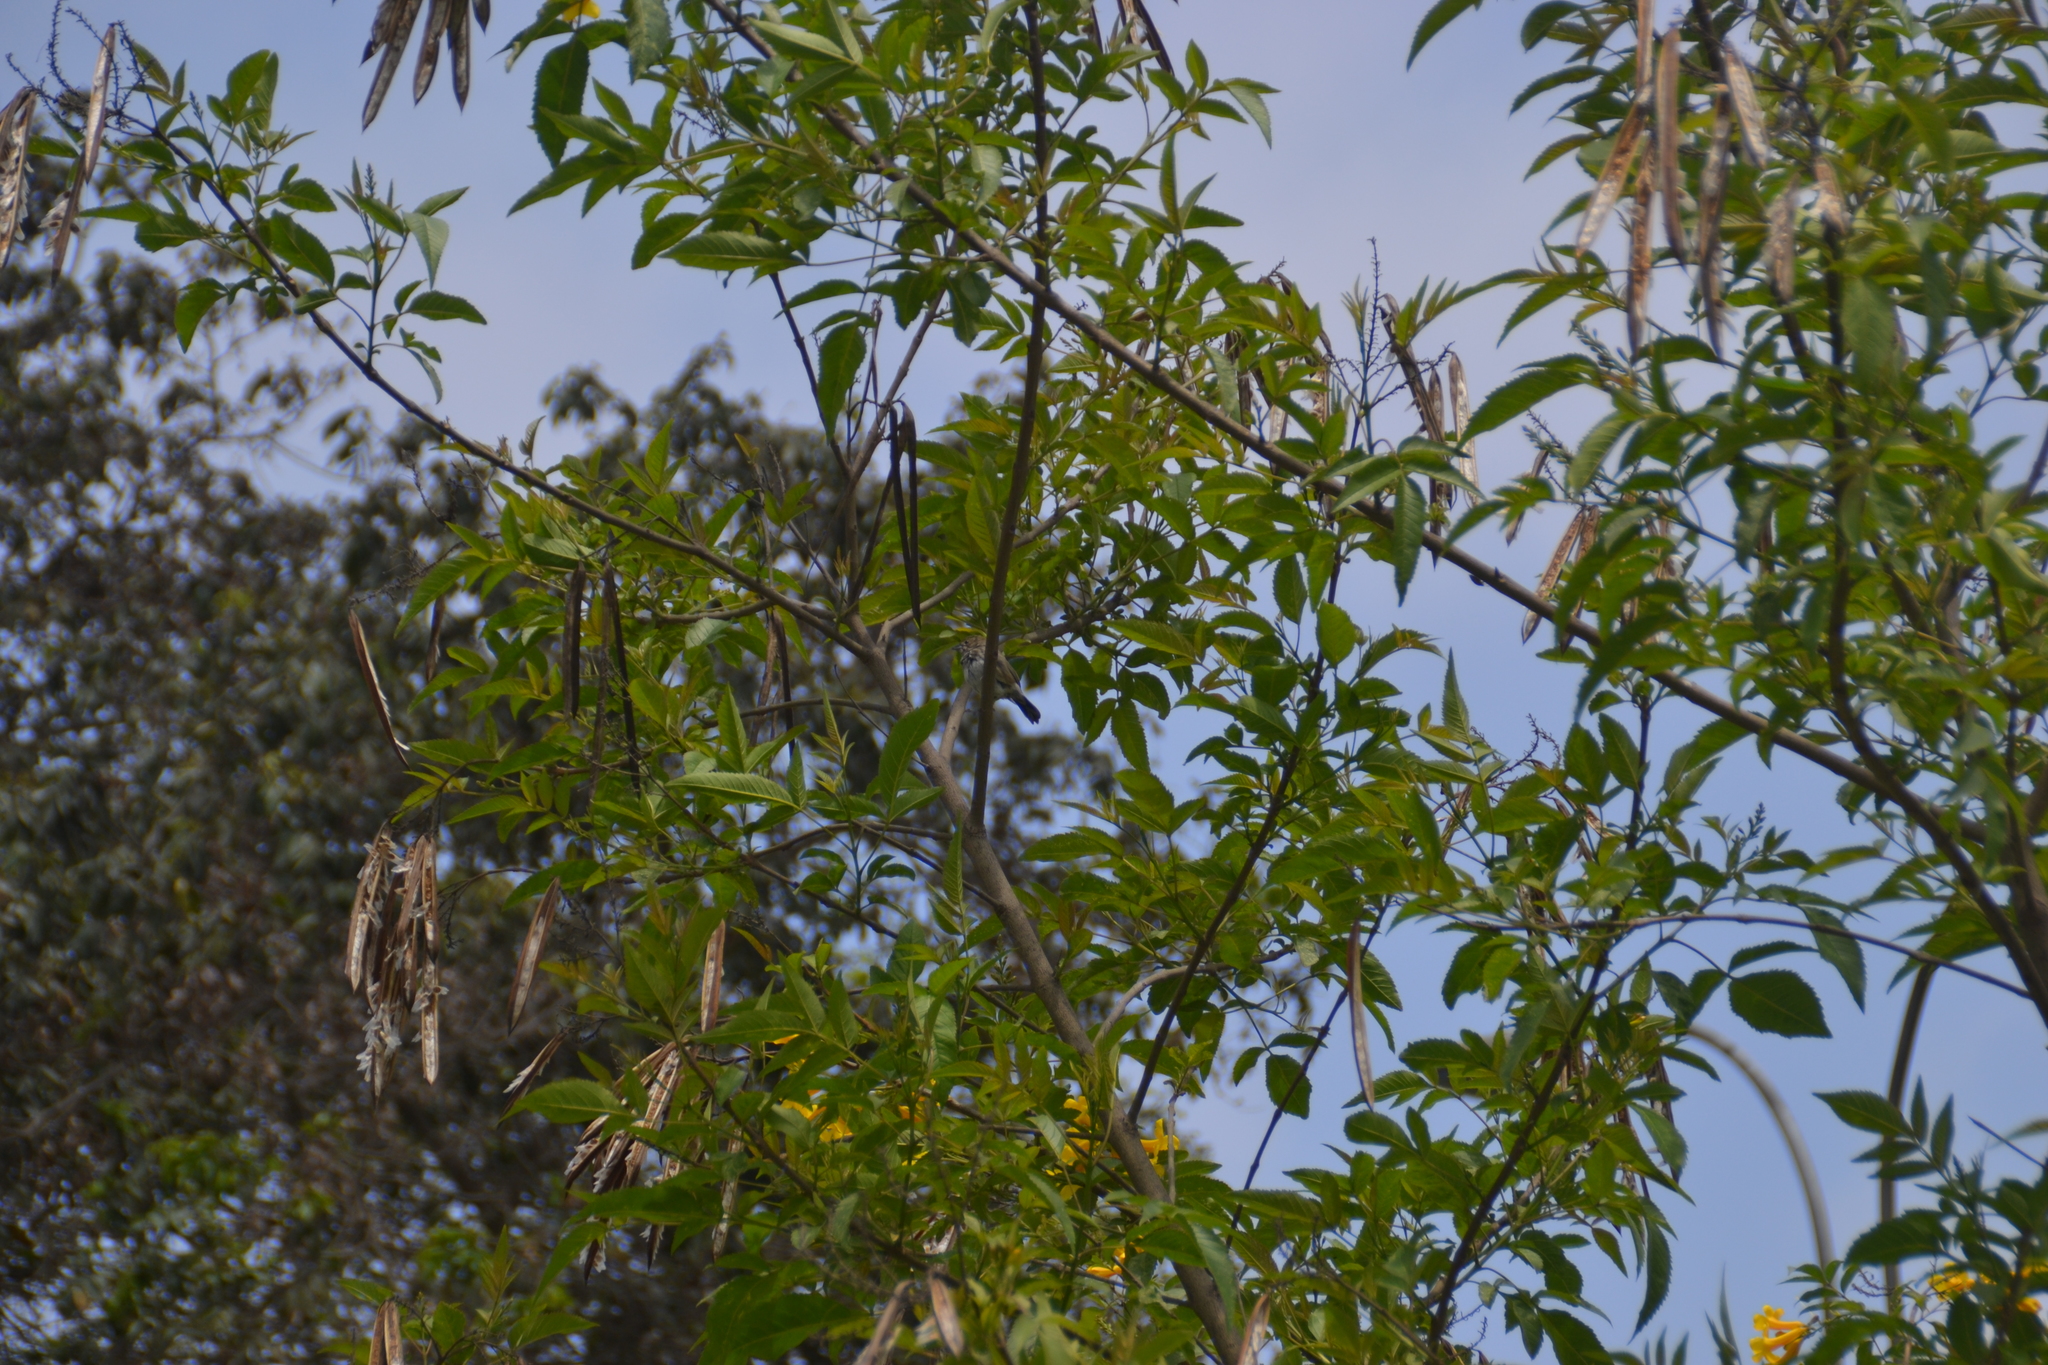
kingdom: Animalia
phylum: Chordata
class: Aves
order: Passeriformes
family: Thraupidae
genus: Volatinia
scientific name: Volatinia jacarina
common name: Blue-black grassquit
